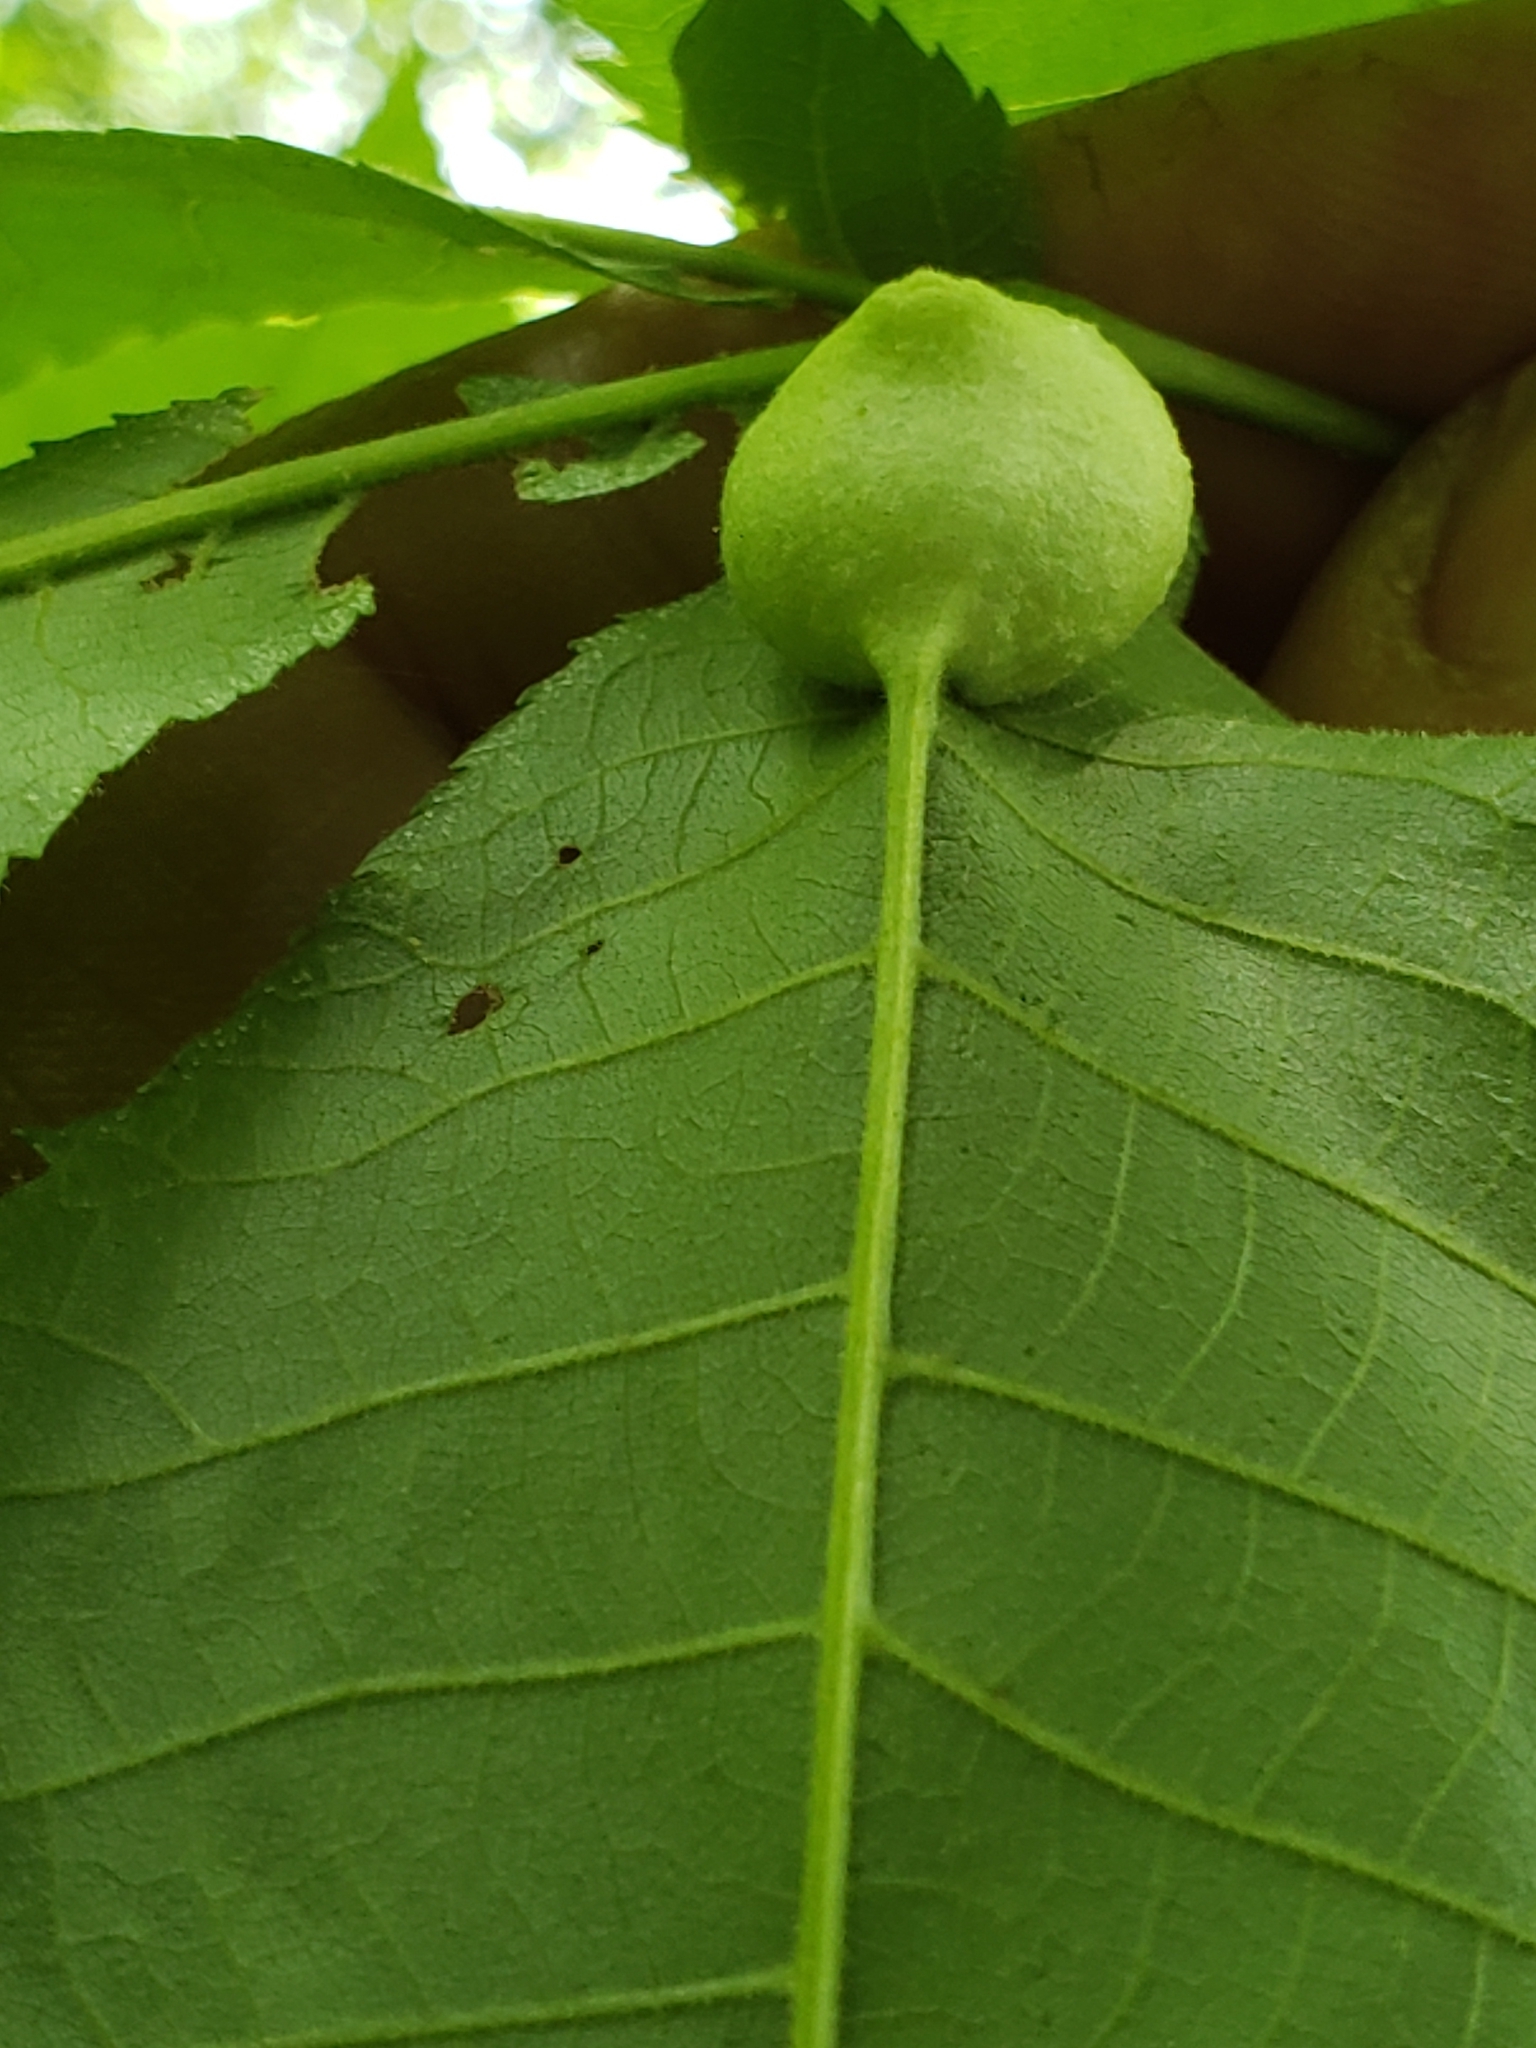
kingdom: Animalia
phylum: Arthropoda
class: Insecta
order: Hemiptera
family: Phylloxeridae
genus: Phylloxera
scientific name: Phylloxera
